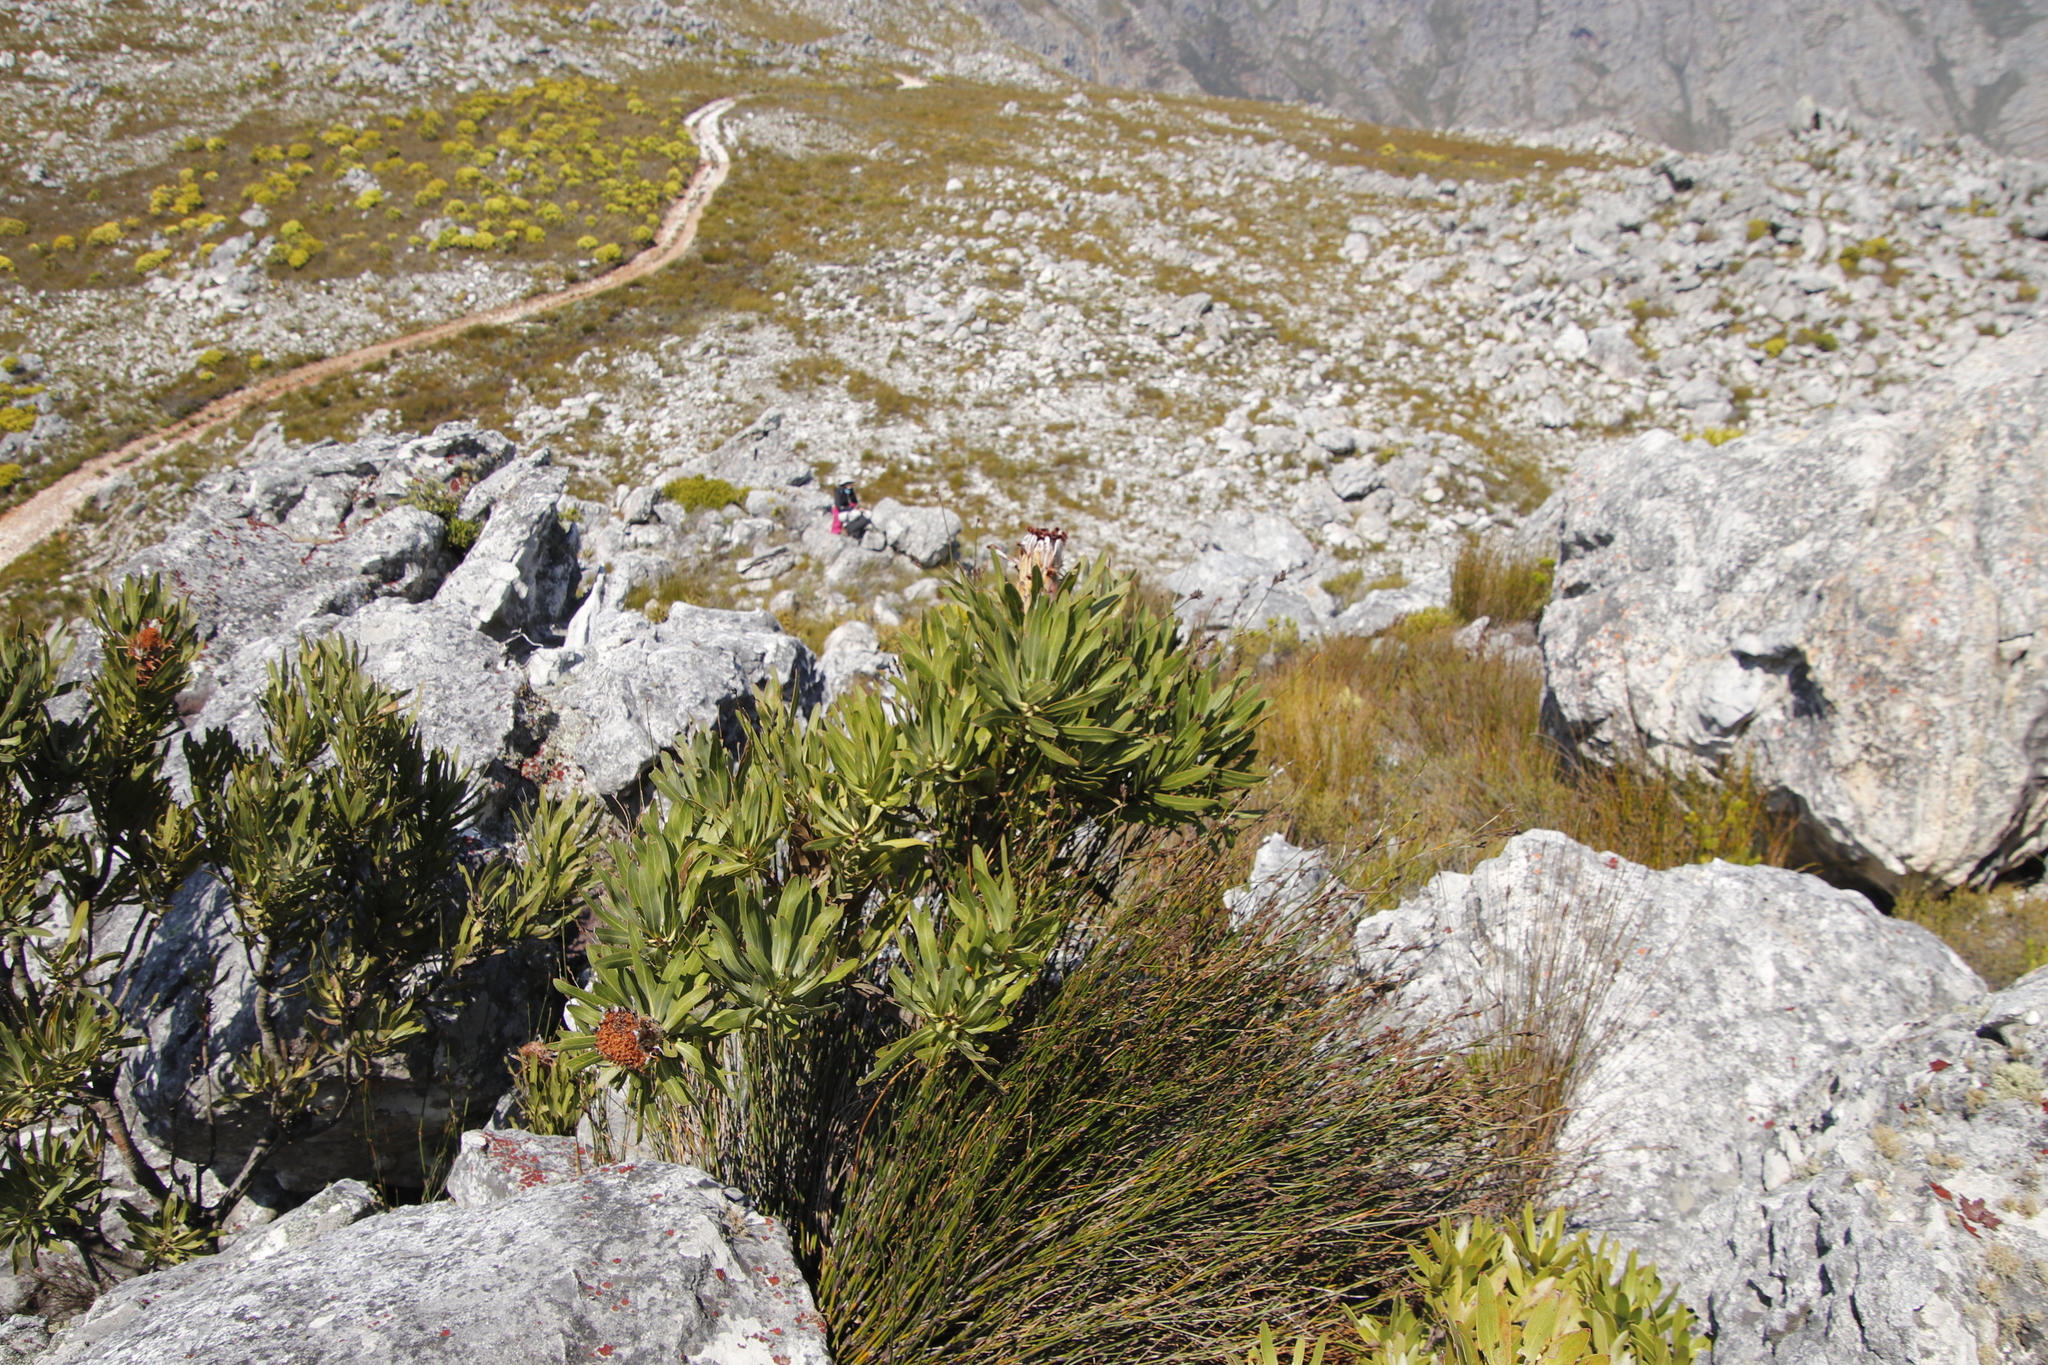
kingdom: Plantae
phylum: Tracheophyta
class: Magnoliopsida
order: Proteales
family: Proteaceae
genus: Protea
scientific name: Protea laurifolia
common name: Grey-leaf sugarbsh
